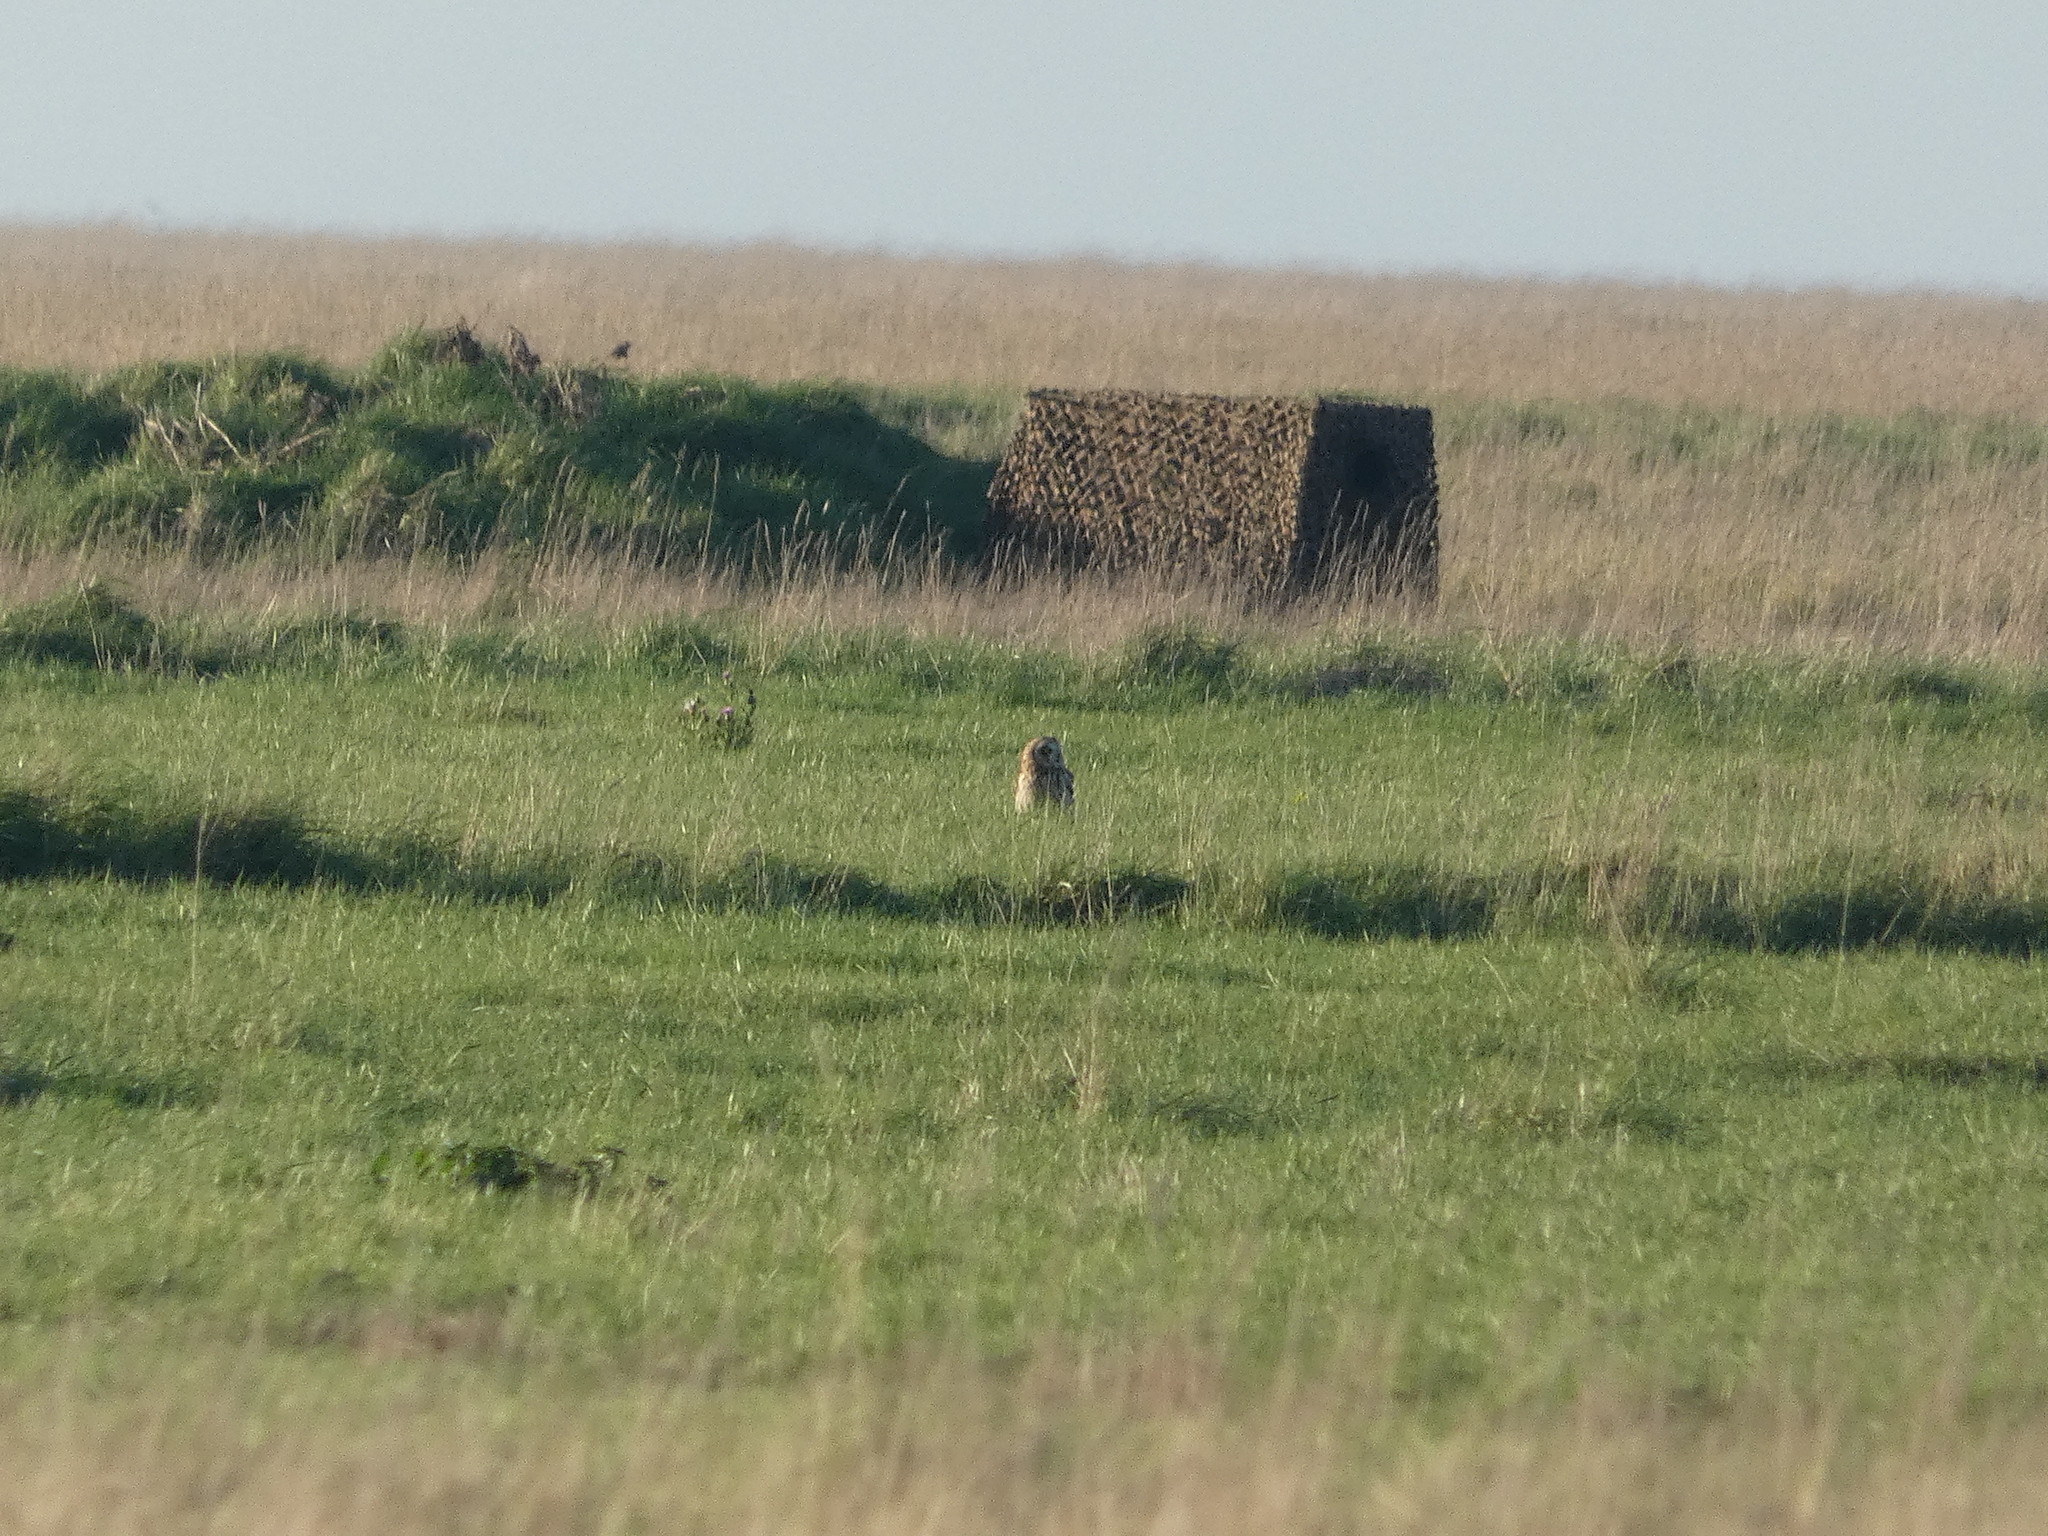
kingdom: Animalia
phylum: Chordata
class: Aves
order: Strigiformes
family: Strigidae
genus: Asio
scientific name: Asio flammeus
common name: Short-eared owl
